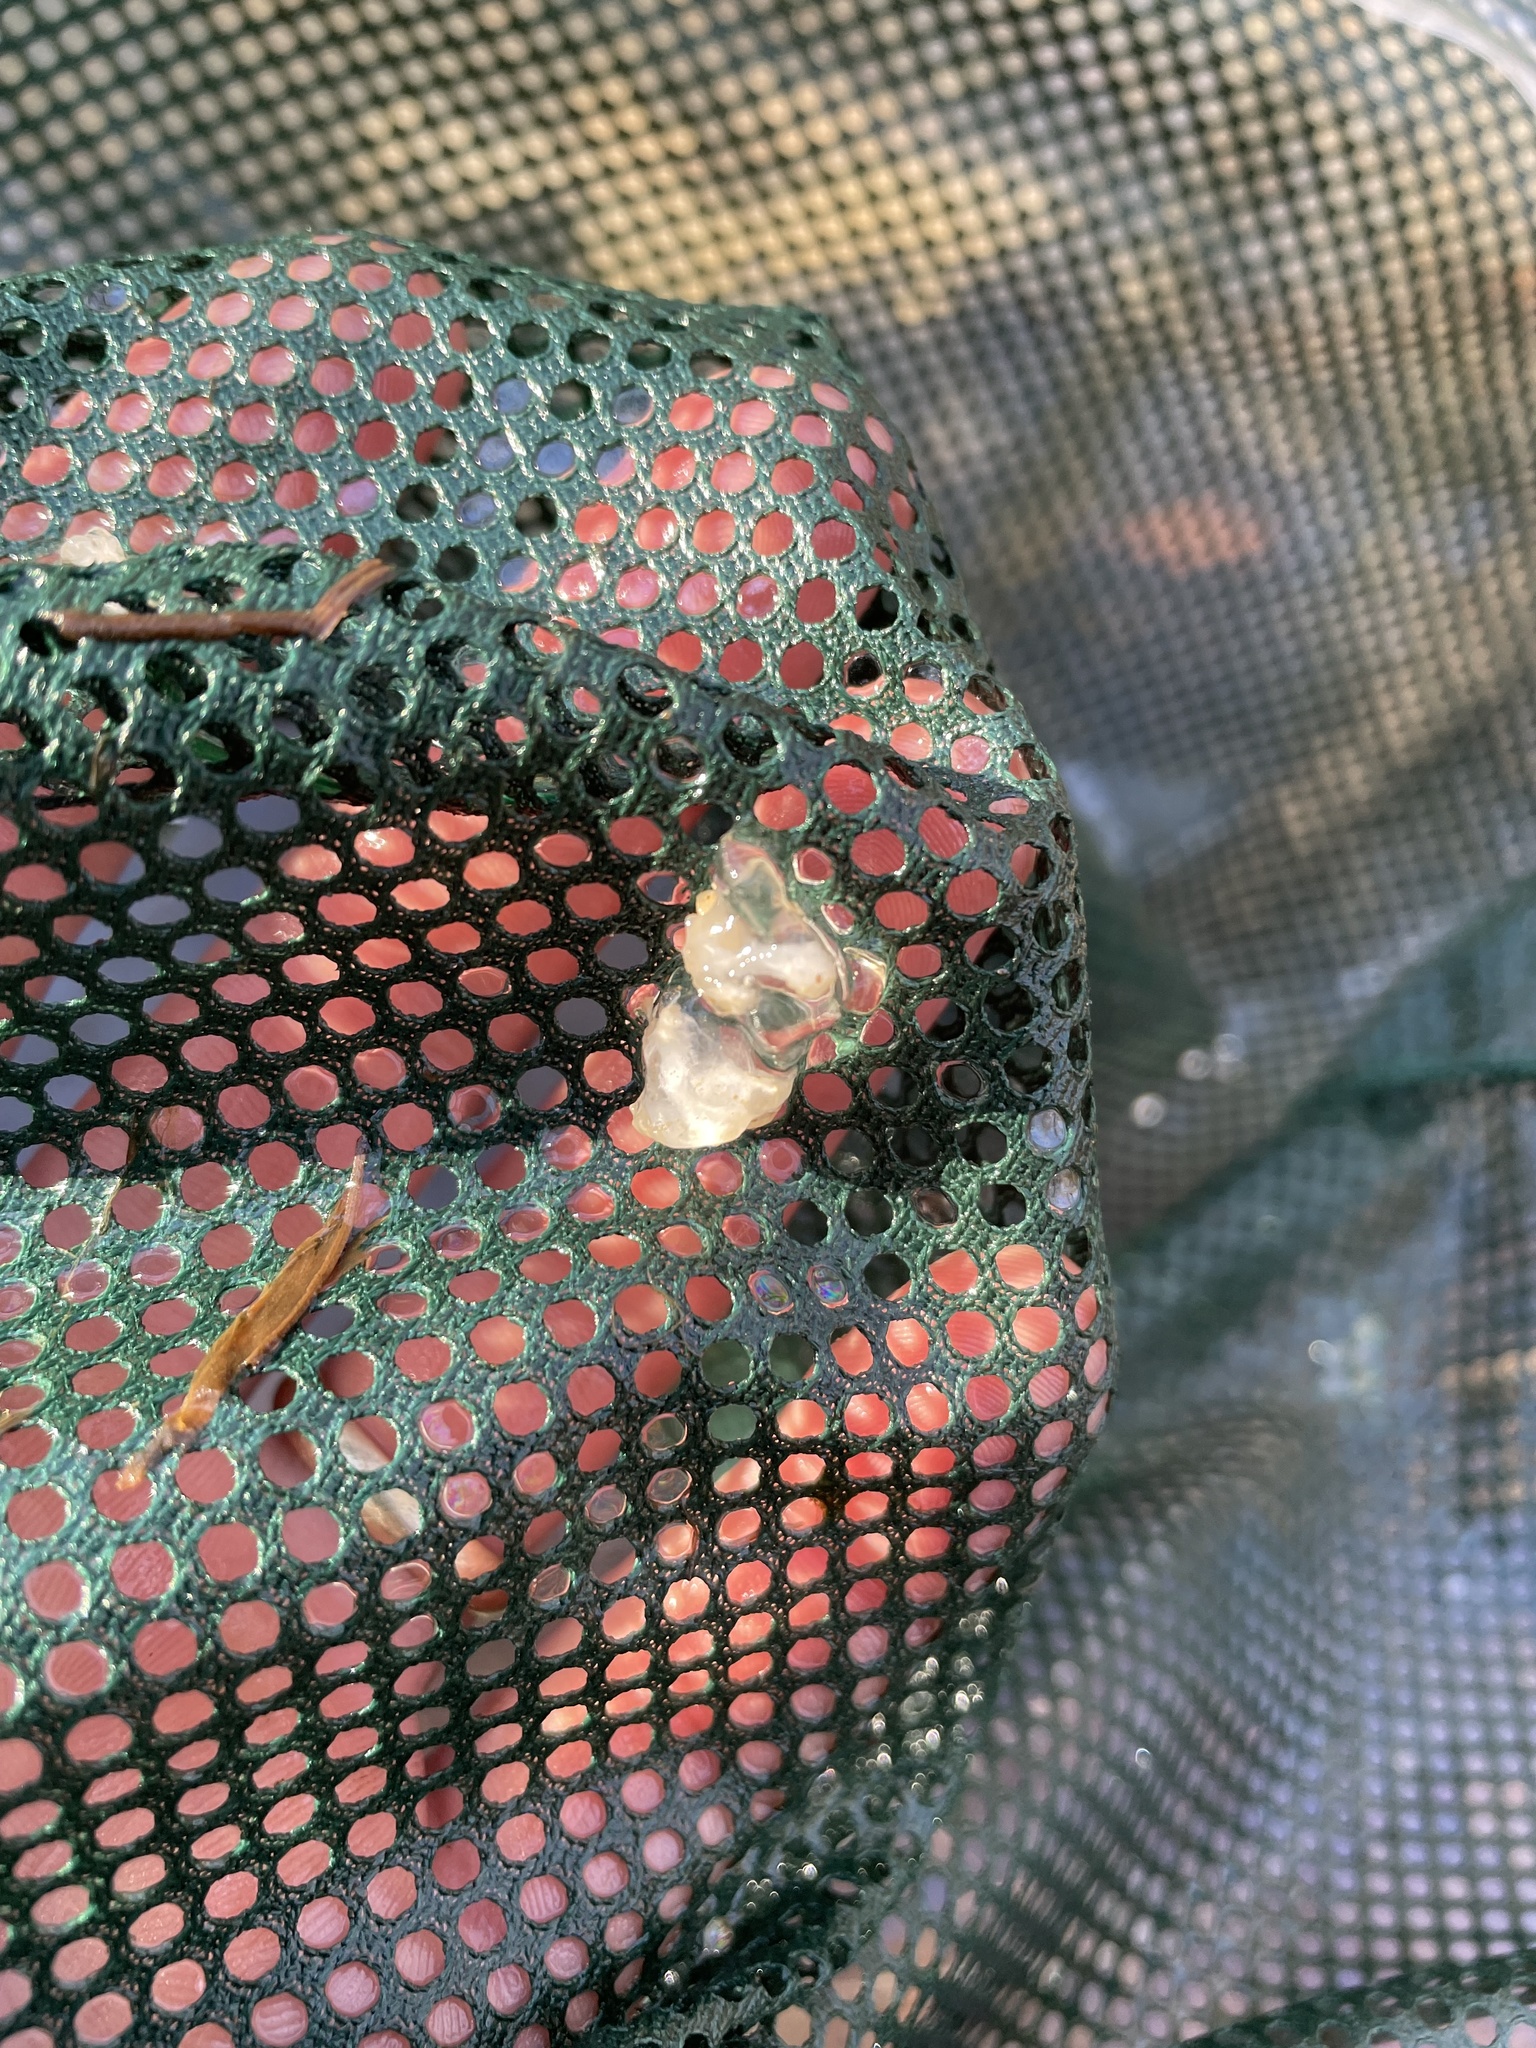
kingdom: Animalia
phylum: Chordata
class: Amphibia
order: Caudata
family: Ambystomatidae
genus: Ambystoma
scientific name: Ambystoma maculatum
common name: Spotted salamander
